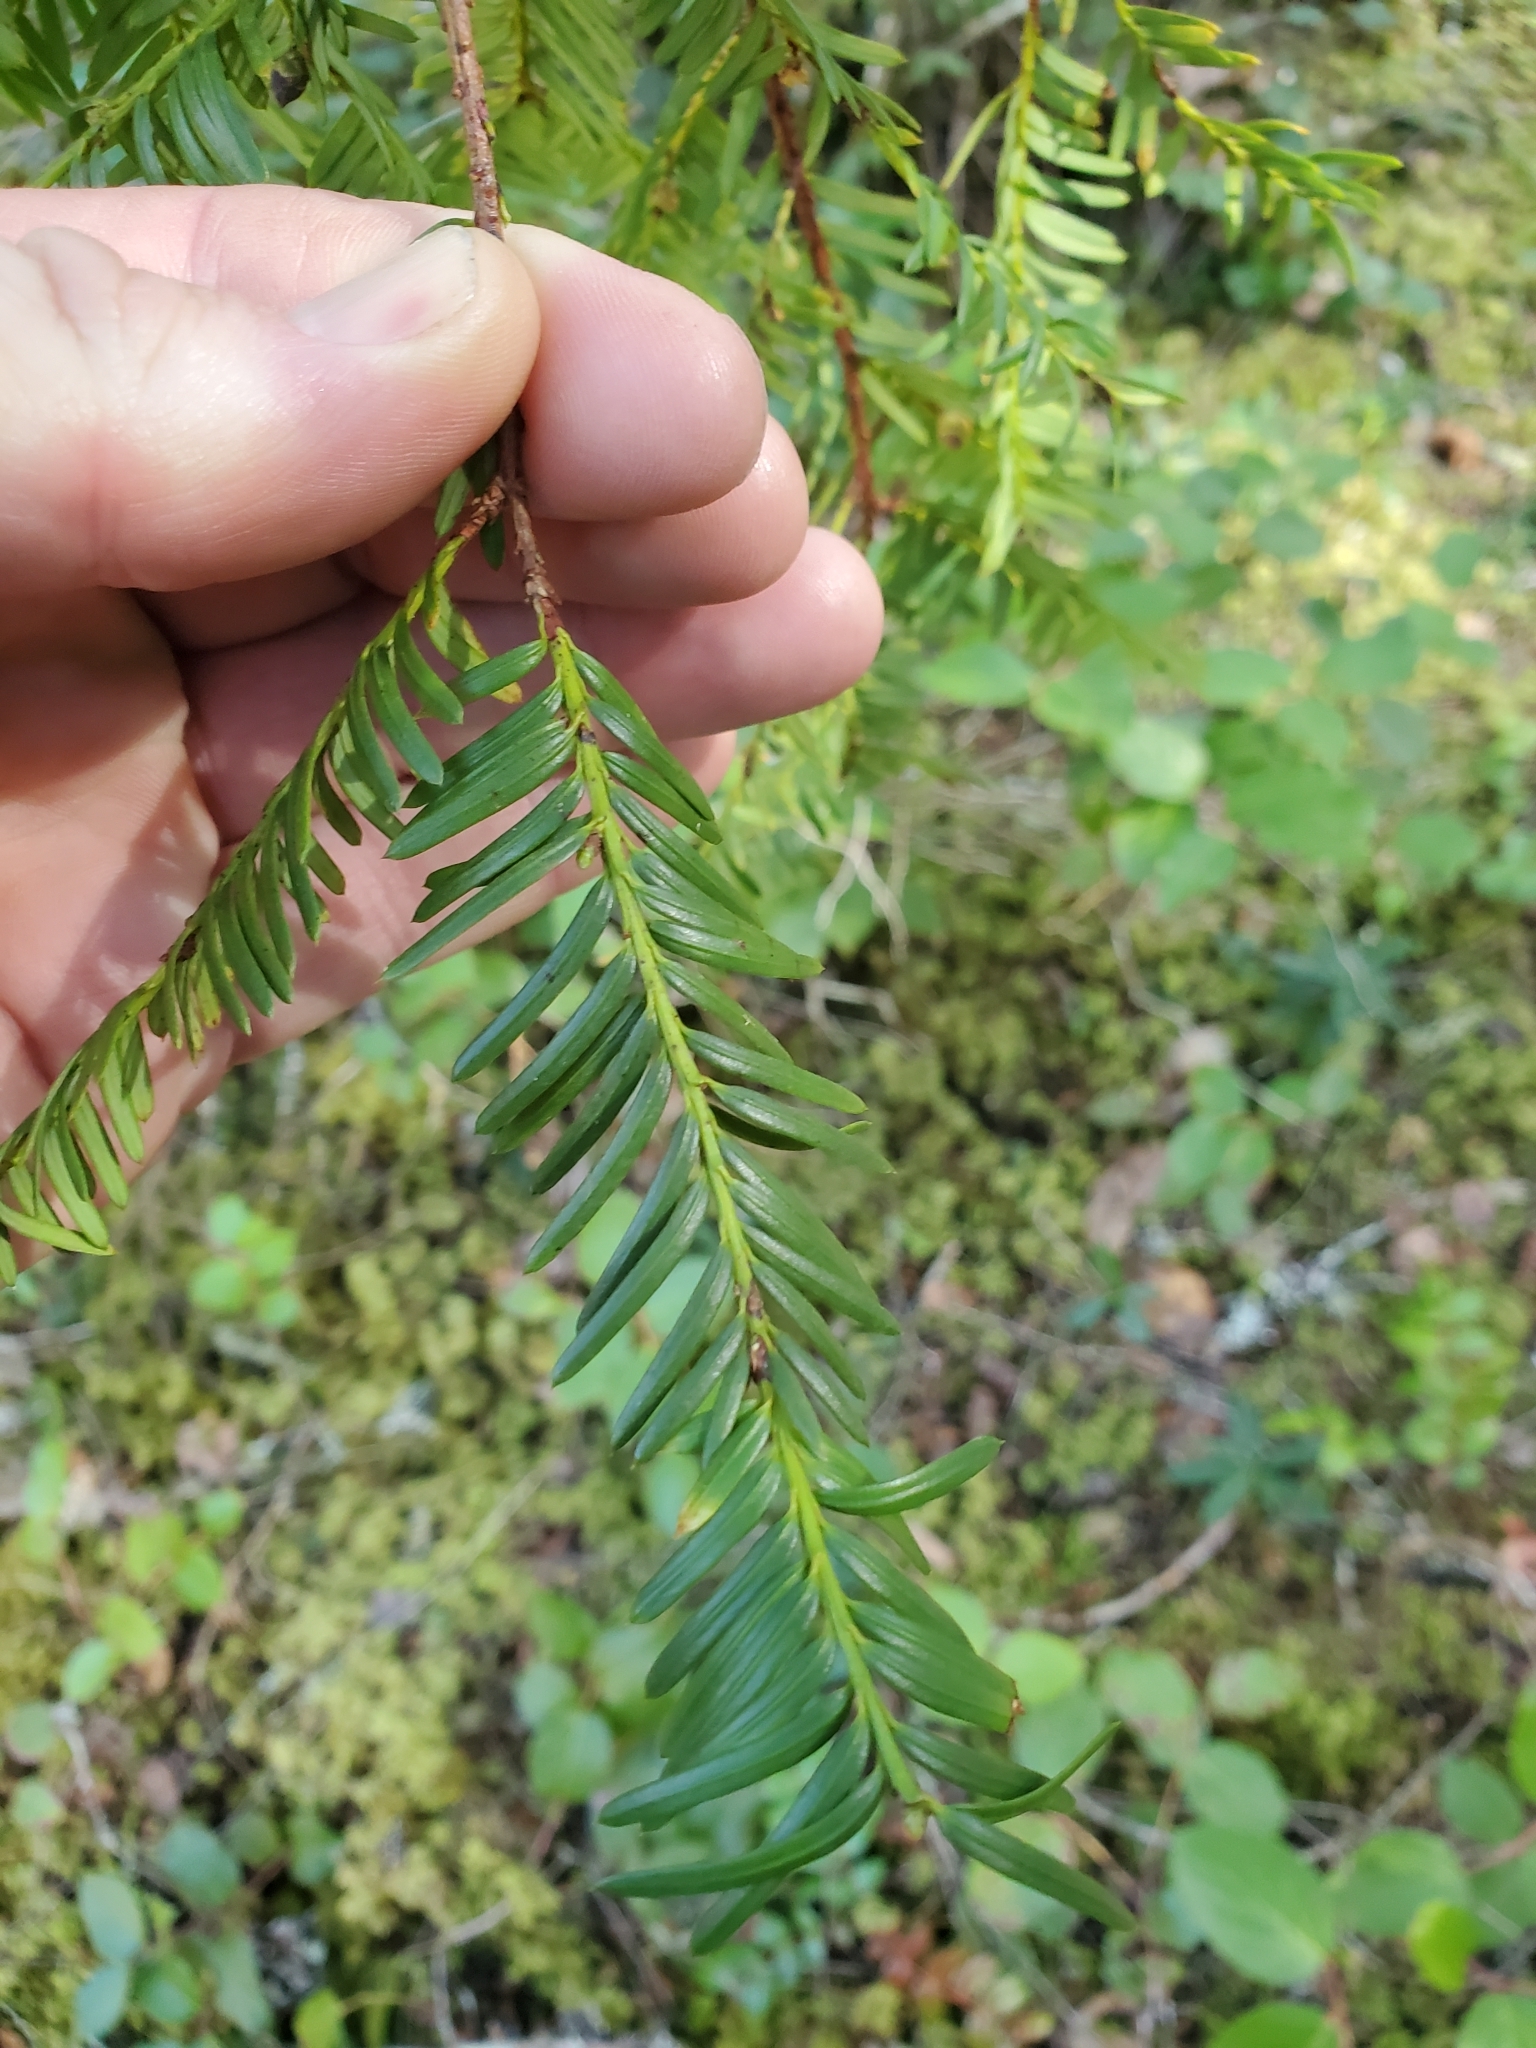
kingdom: Plantae
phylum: Tracheophyta
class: Pinopsida
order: Pinales
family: Taxaceae
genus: Taxus
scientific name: Taxus brevifolia
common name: Pacific yew
